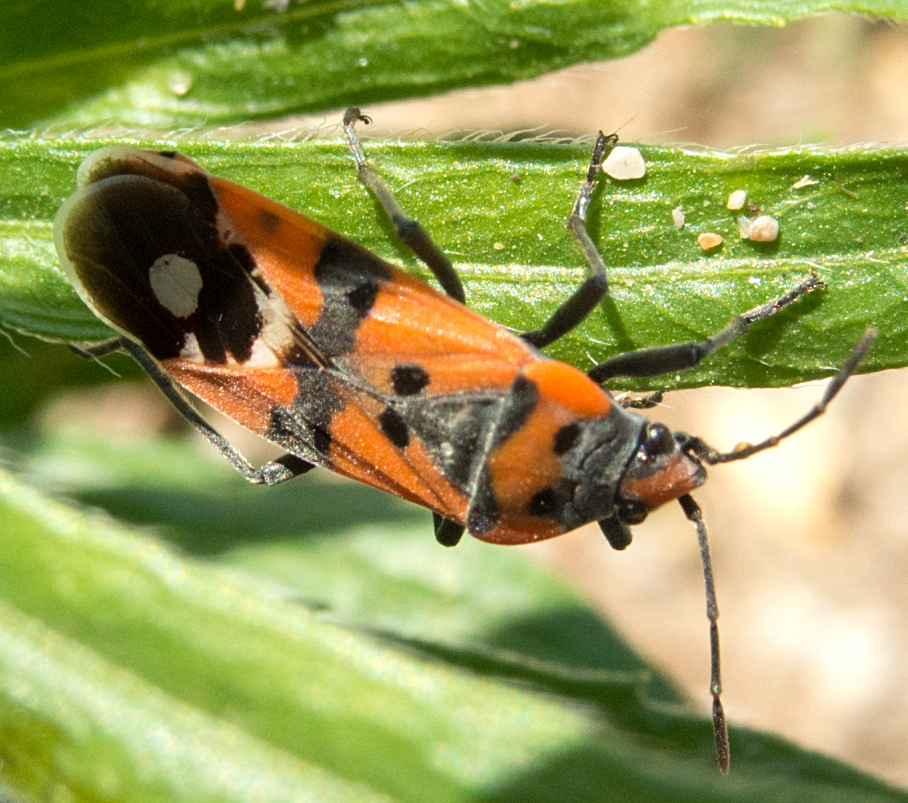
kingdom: Animalia
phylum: Arthropoda
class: Insecta
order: Hemiptera
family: Lygaeidae
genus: Lygaeus
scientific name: Lygaeus simulans
